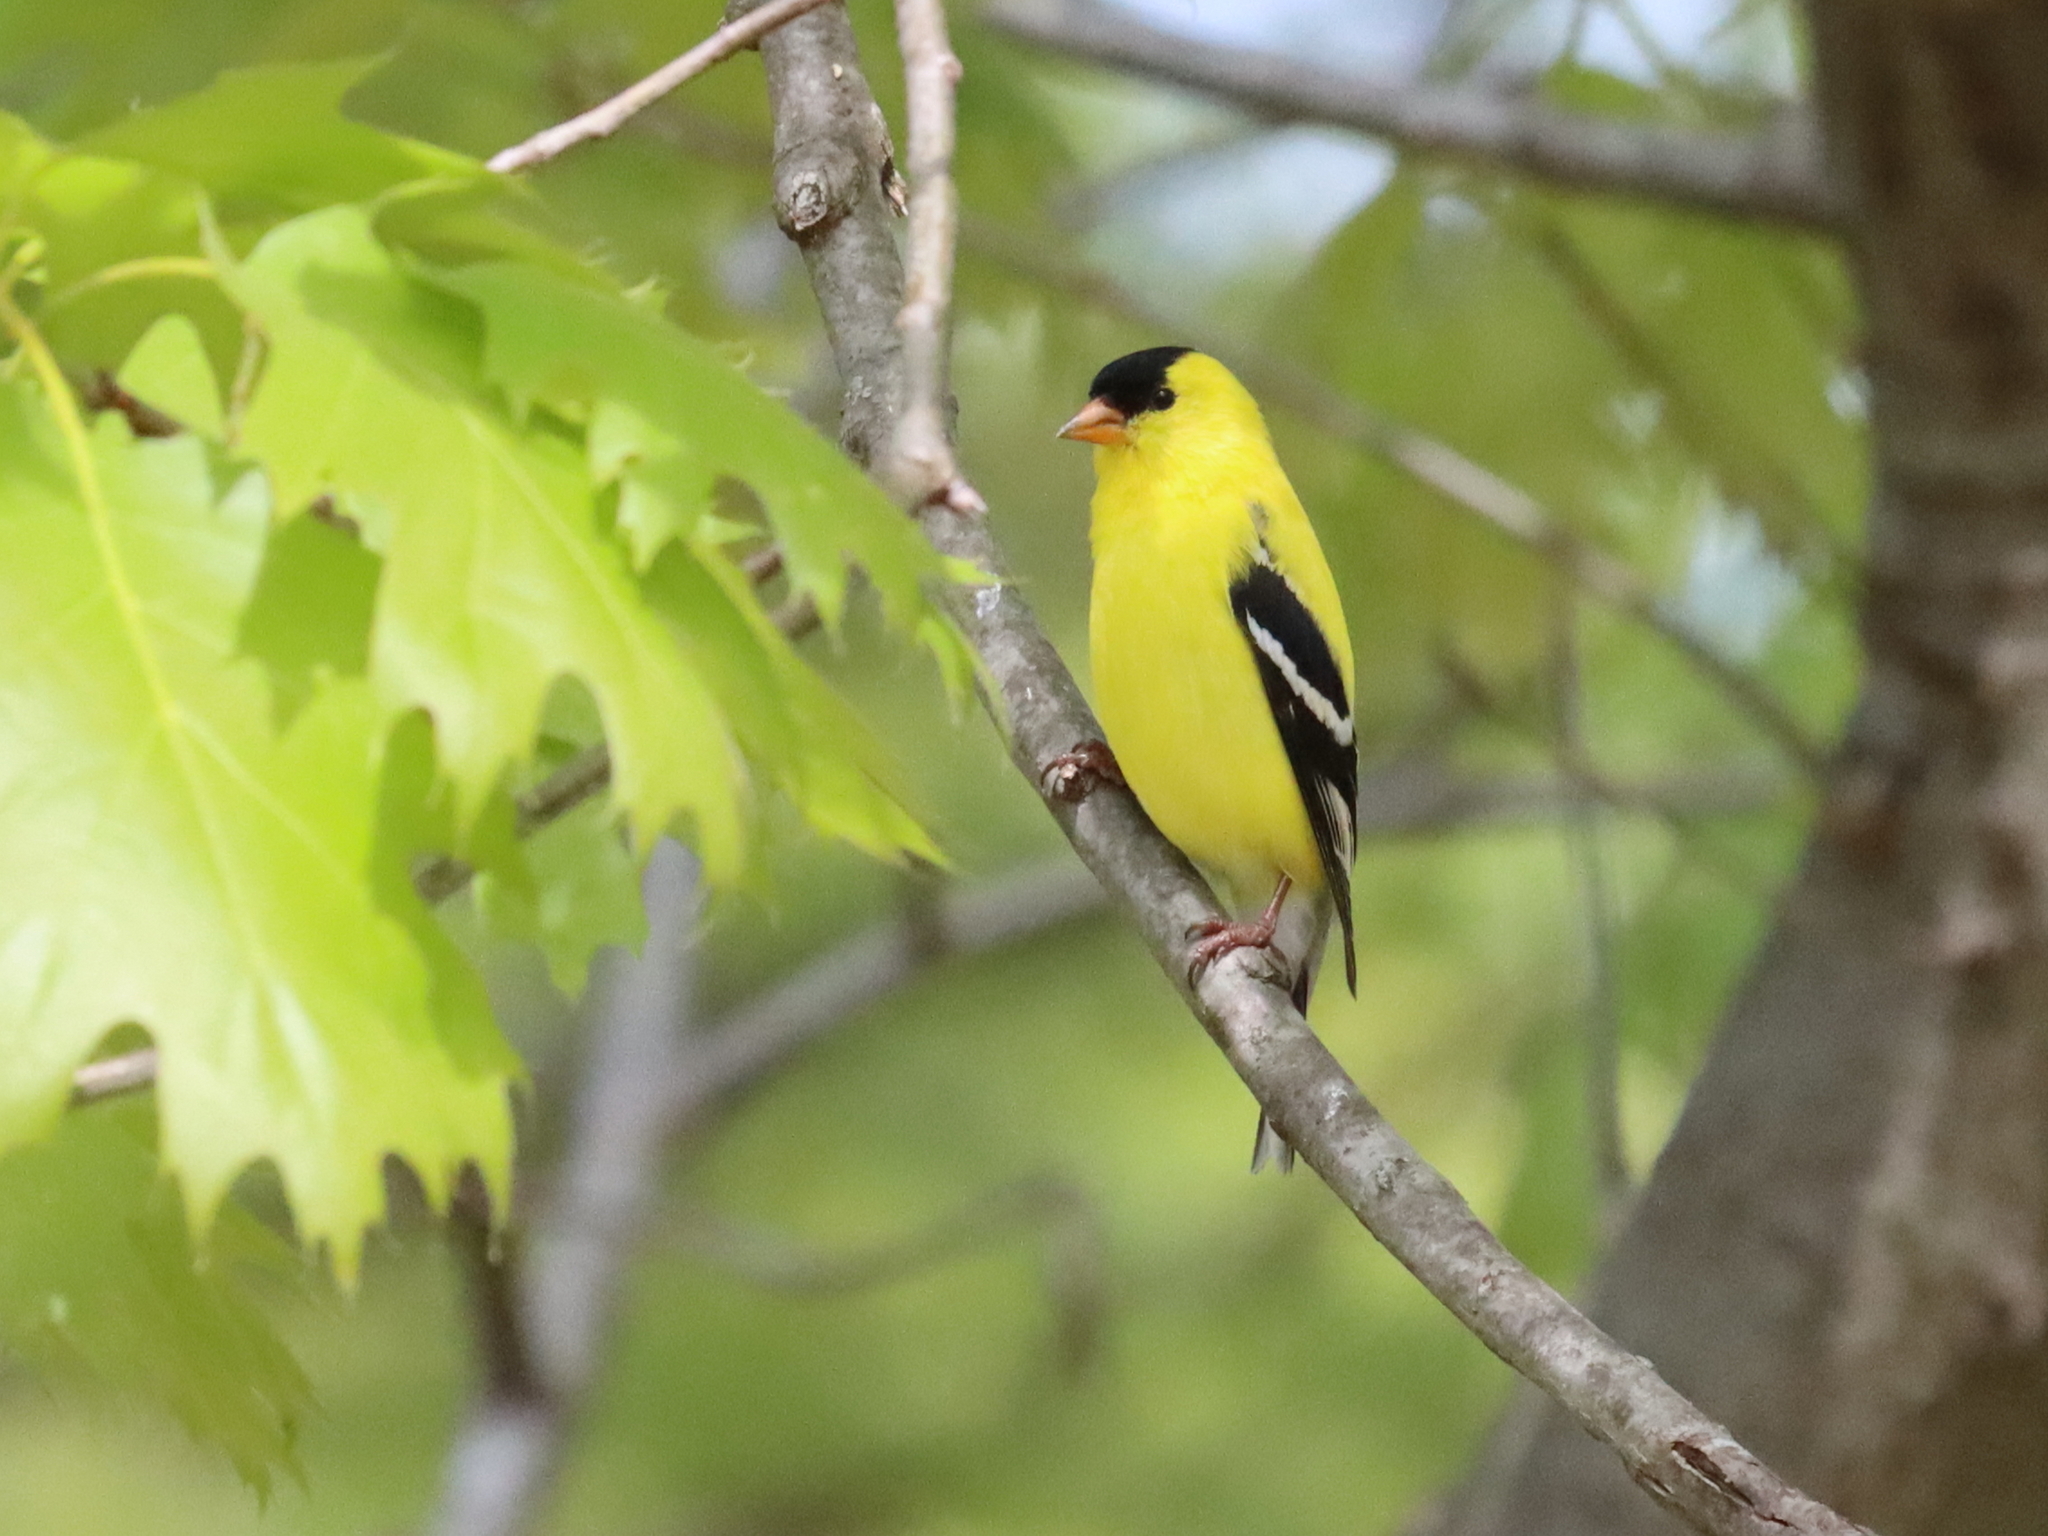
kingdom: Animalia
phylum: Chordata
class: Aves
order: Passeriformes
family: Fringillidae
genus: Spinus
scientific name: Spinus tristis
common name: American goldfinch
